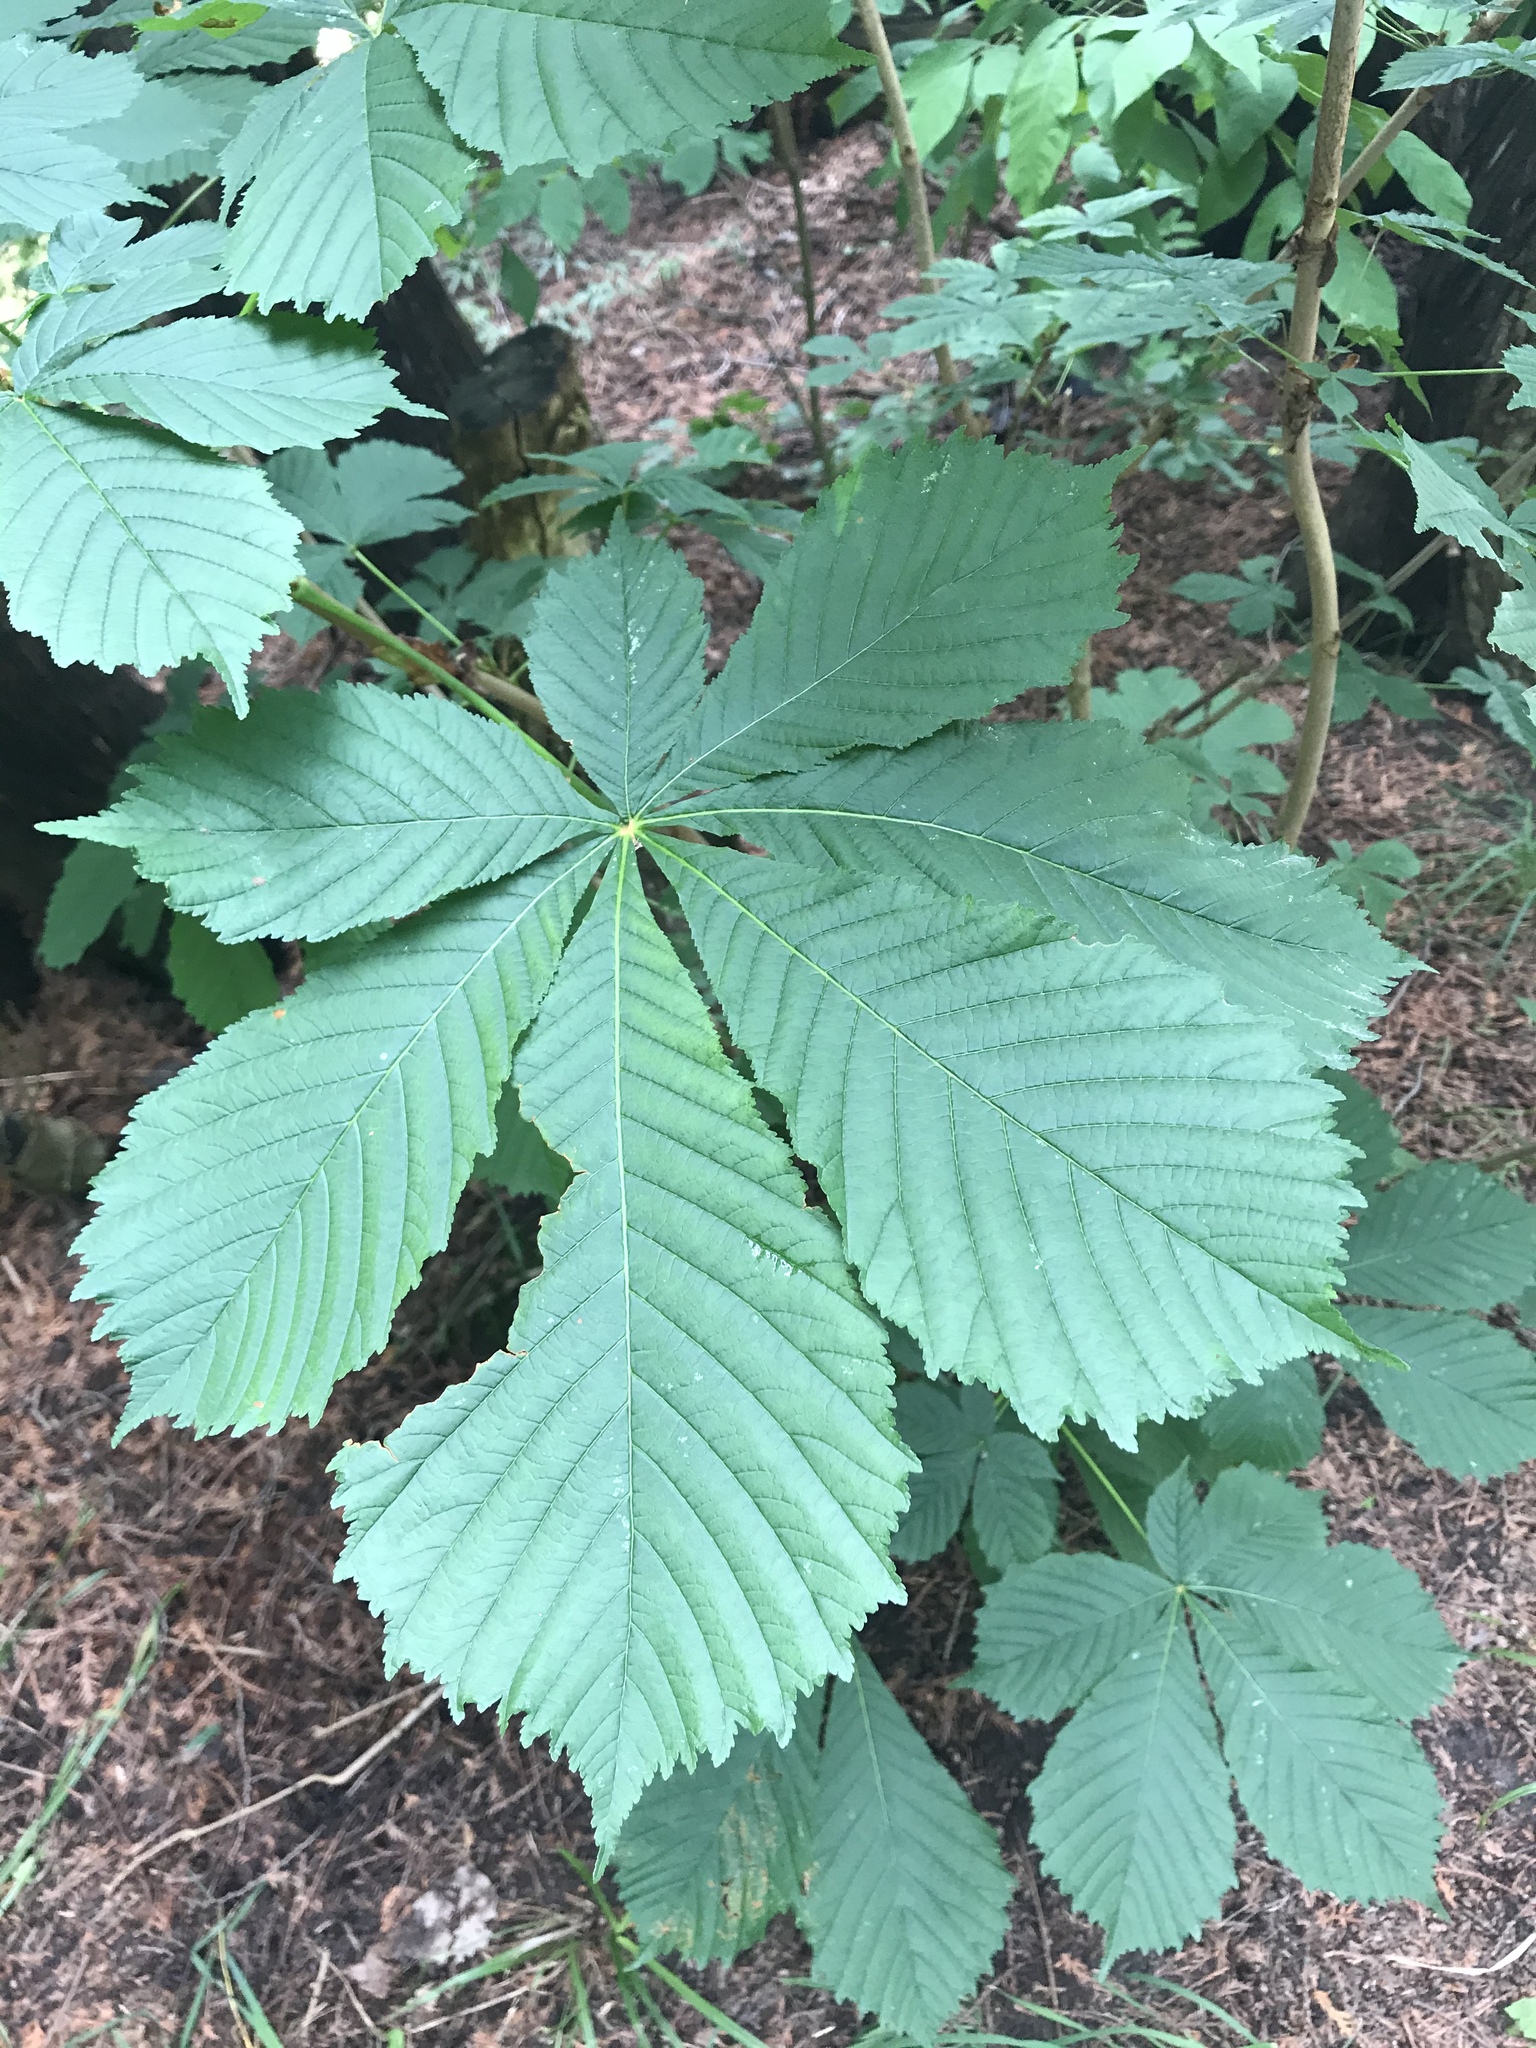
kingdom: Plantae
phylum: Tracheophyta
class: Magnoliopsida
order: Sapindales
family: Sapindaceae
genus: Aesculus
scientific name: Aesculus hippocastanum
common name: Horse-chestnut
